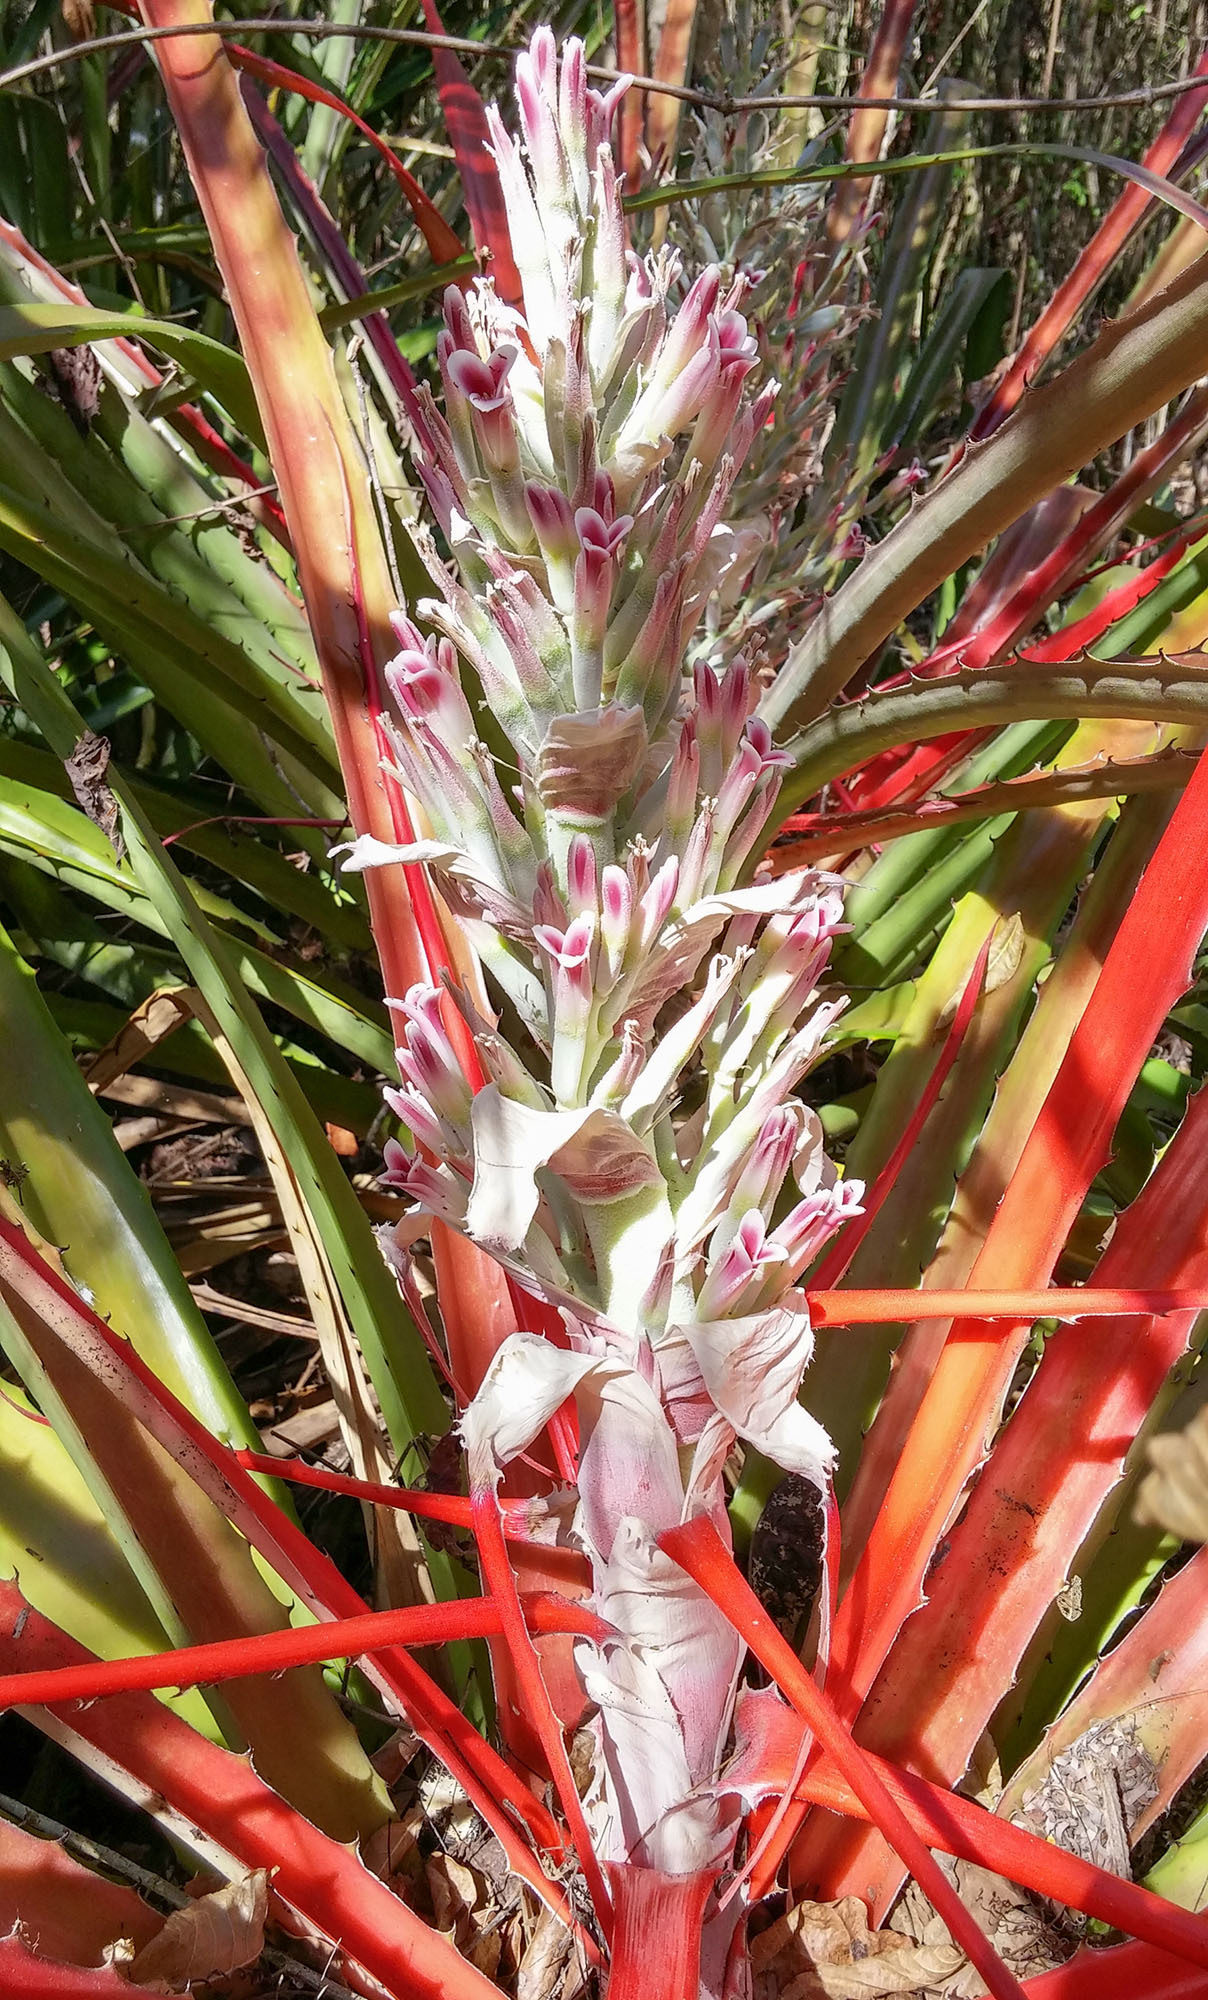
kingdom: Plantae
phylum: Tracheophyta
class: Liliopsida
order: Poales
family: Bromeliaceae
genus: Bromelia
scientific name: Bromelia pinguin
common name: Pinguin
